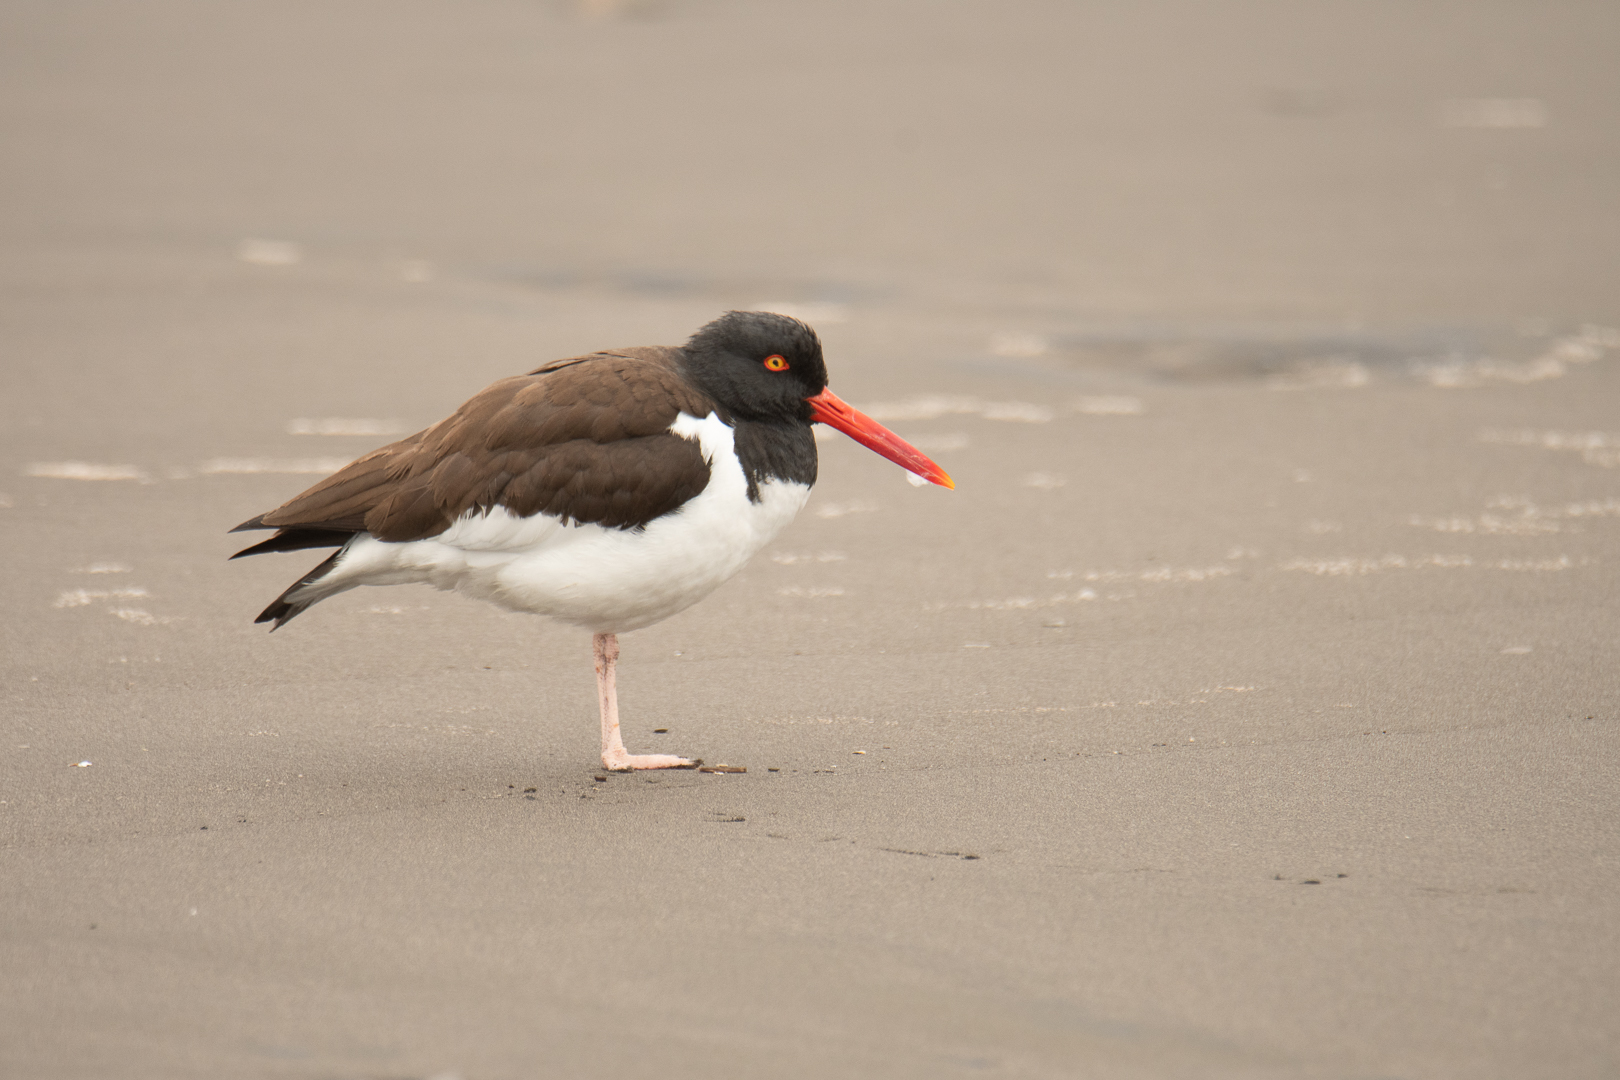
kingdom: Animalia
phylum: Chordata
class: Aves
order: Charadriiformes
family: Haematopodidae
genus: Haematopus
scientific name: Haematopus palliatus
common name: American oystercatcher
